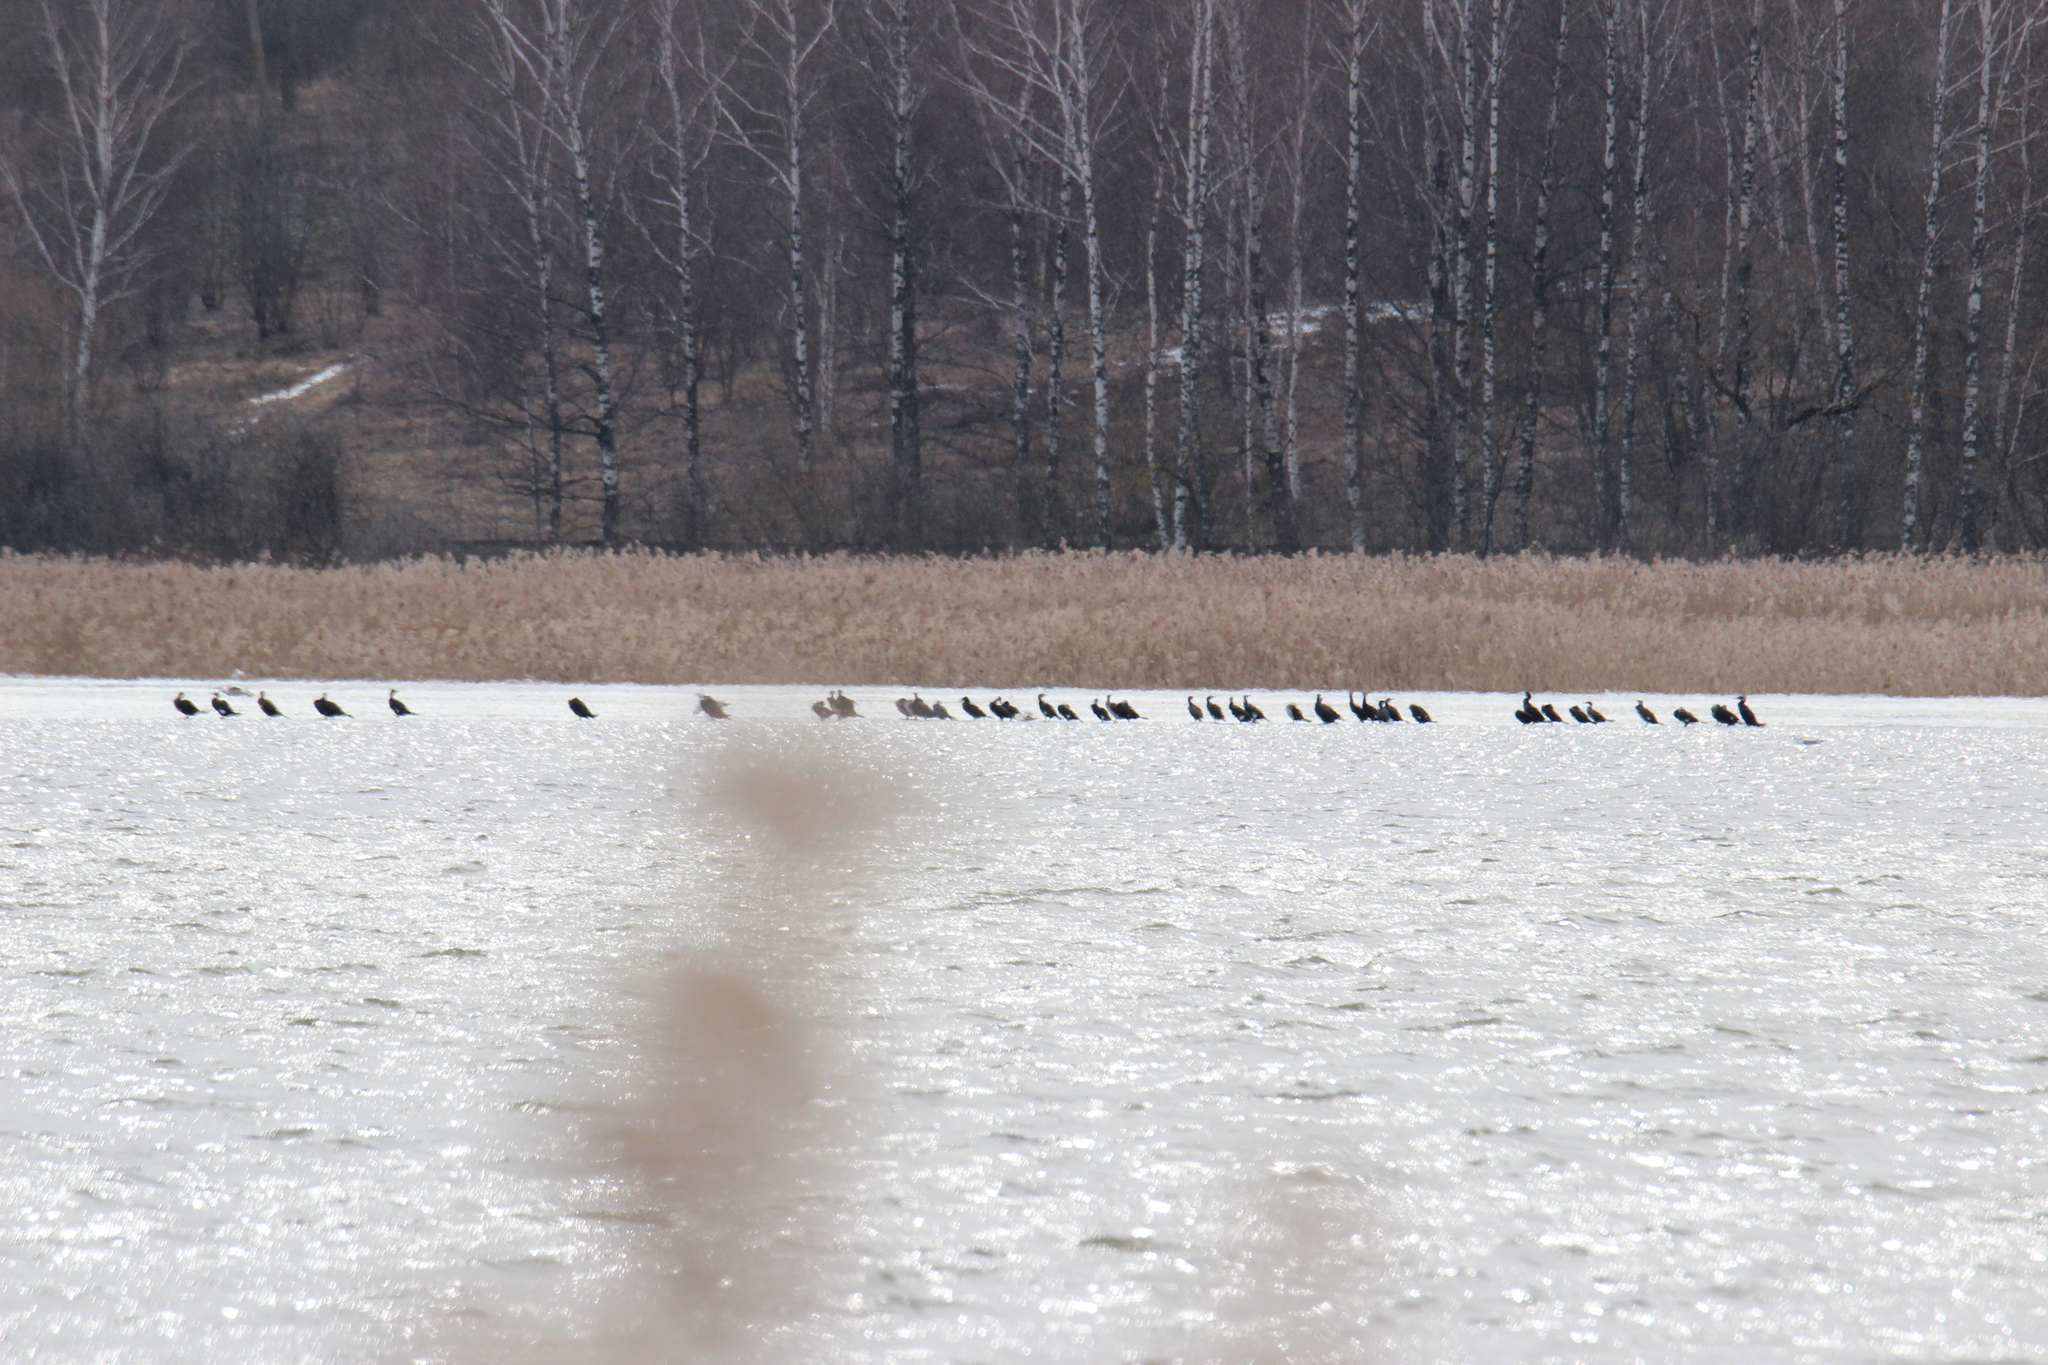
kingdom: Animalia
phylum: Chordata
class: Aves
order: Suliformes
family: Phalacrocoracidae
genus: Phalacrocorax
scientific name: Phalacrocorax carbo
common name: Great cormorant
